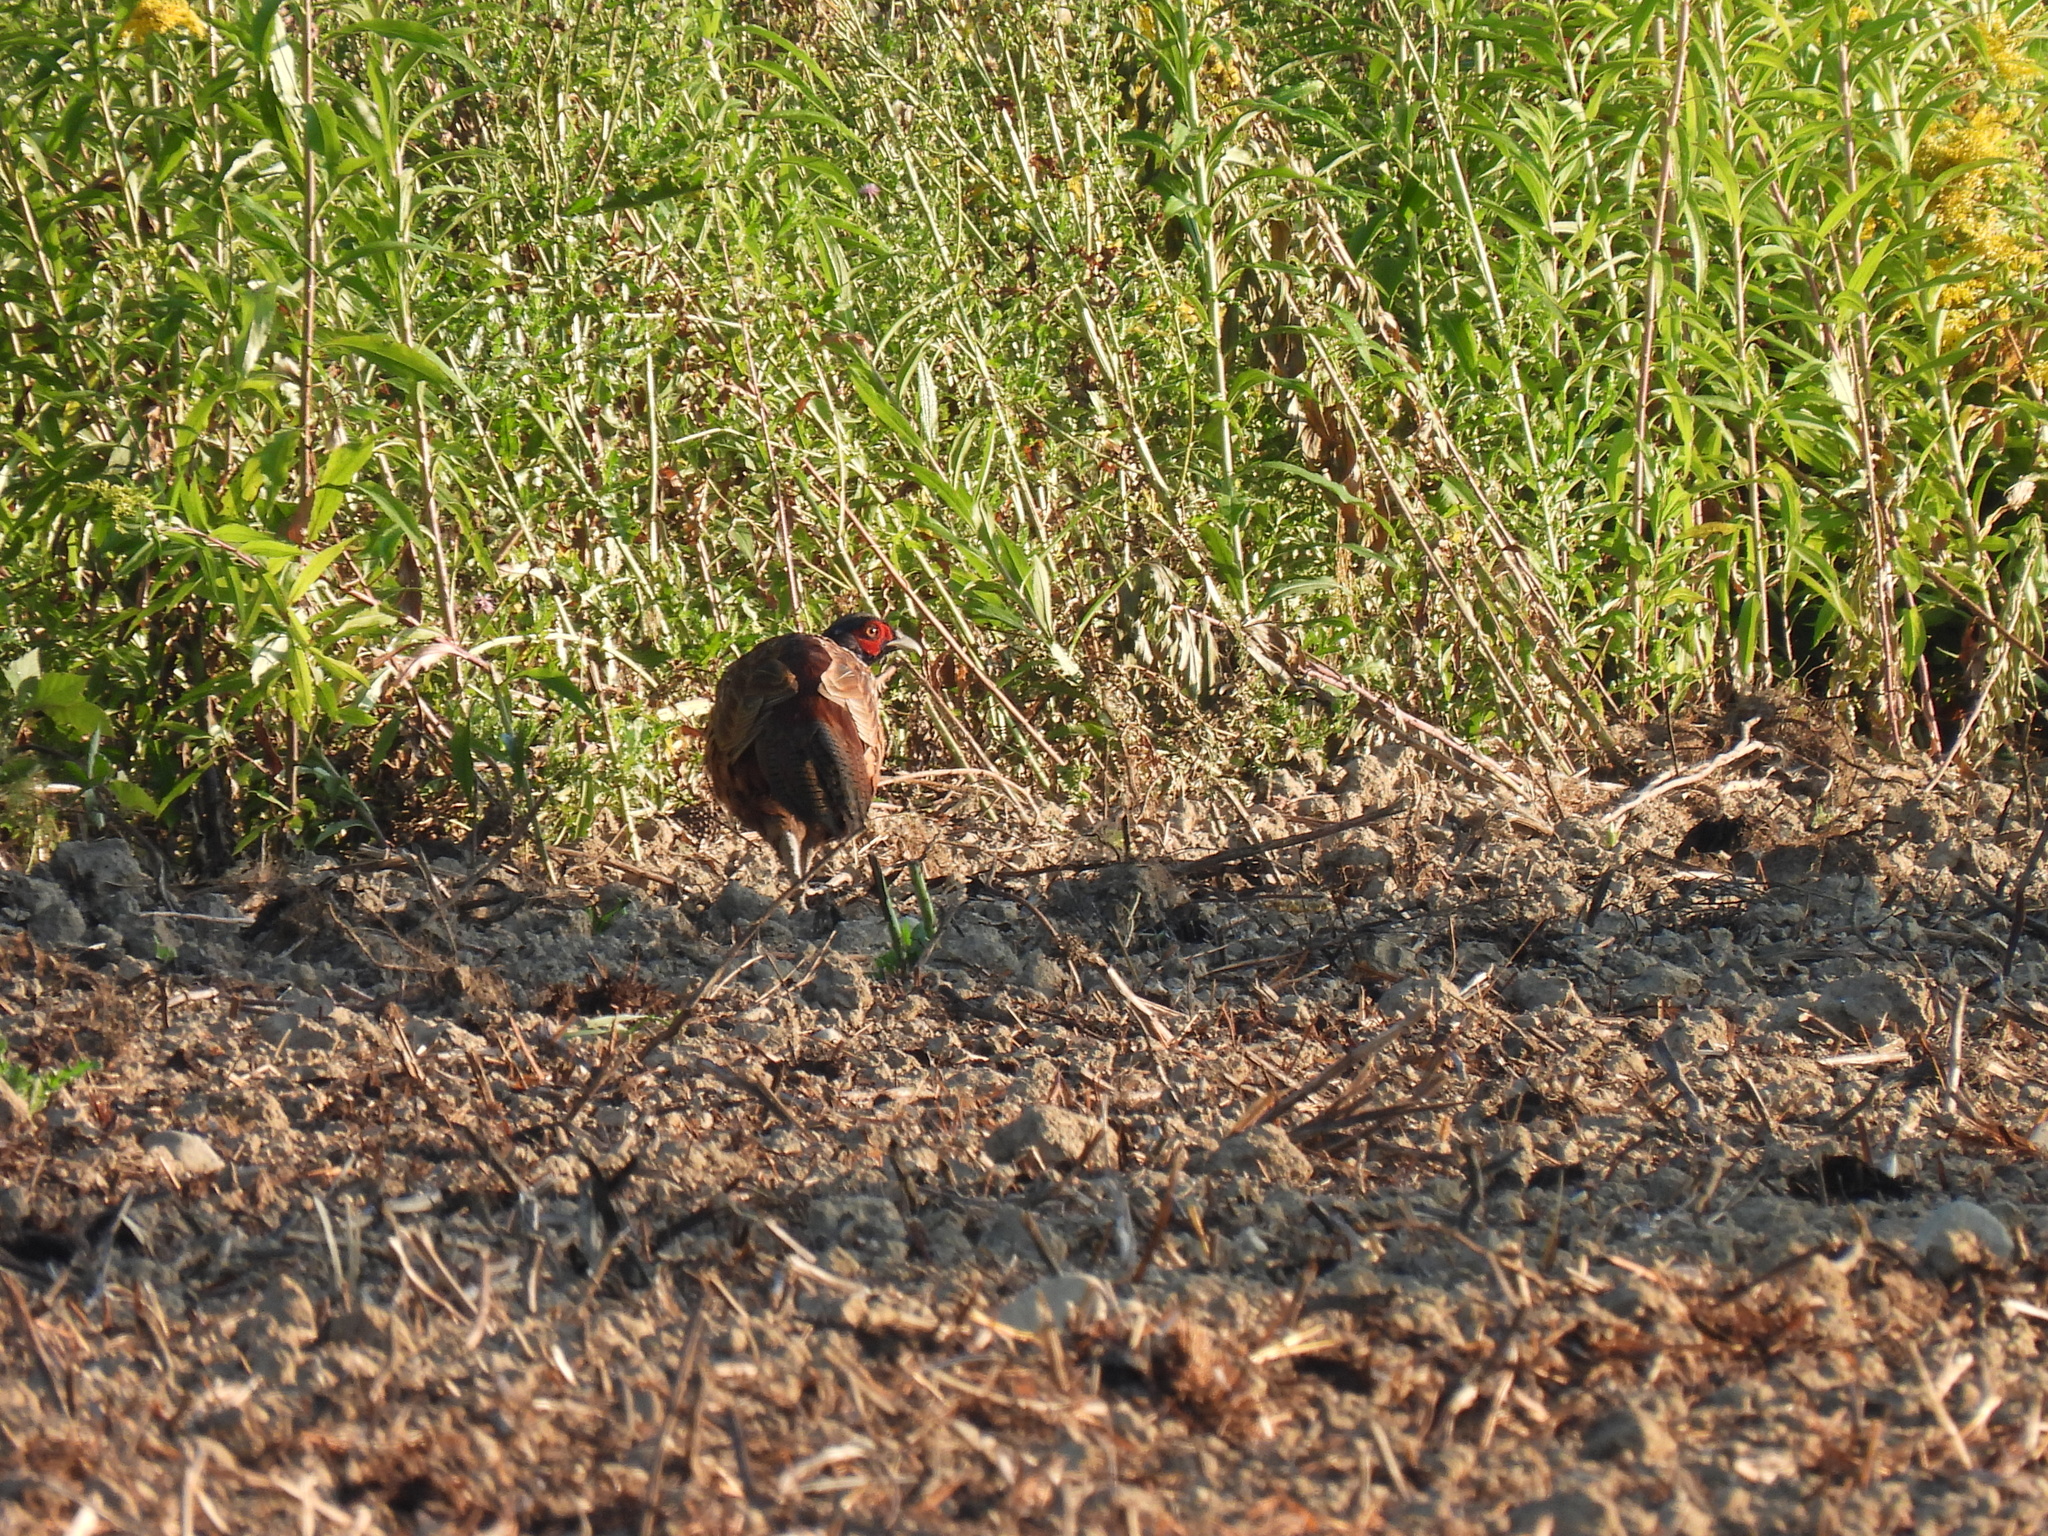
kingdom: Animalia
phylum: Chordata
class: Aves
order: Galliformes
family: Phasianidae
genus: Phasianus
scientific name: Phasianus colchicus
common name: Common pheasant
